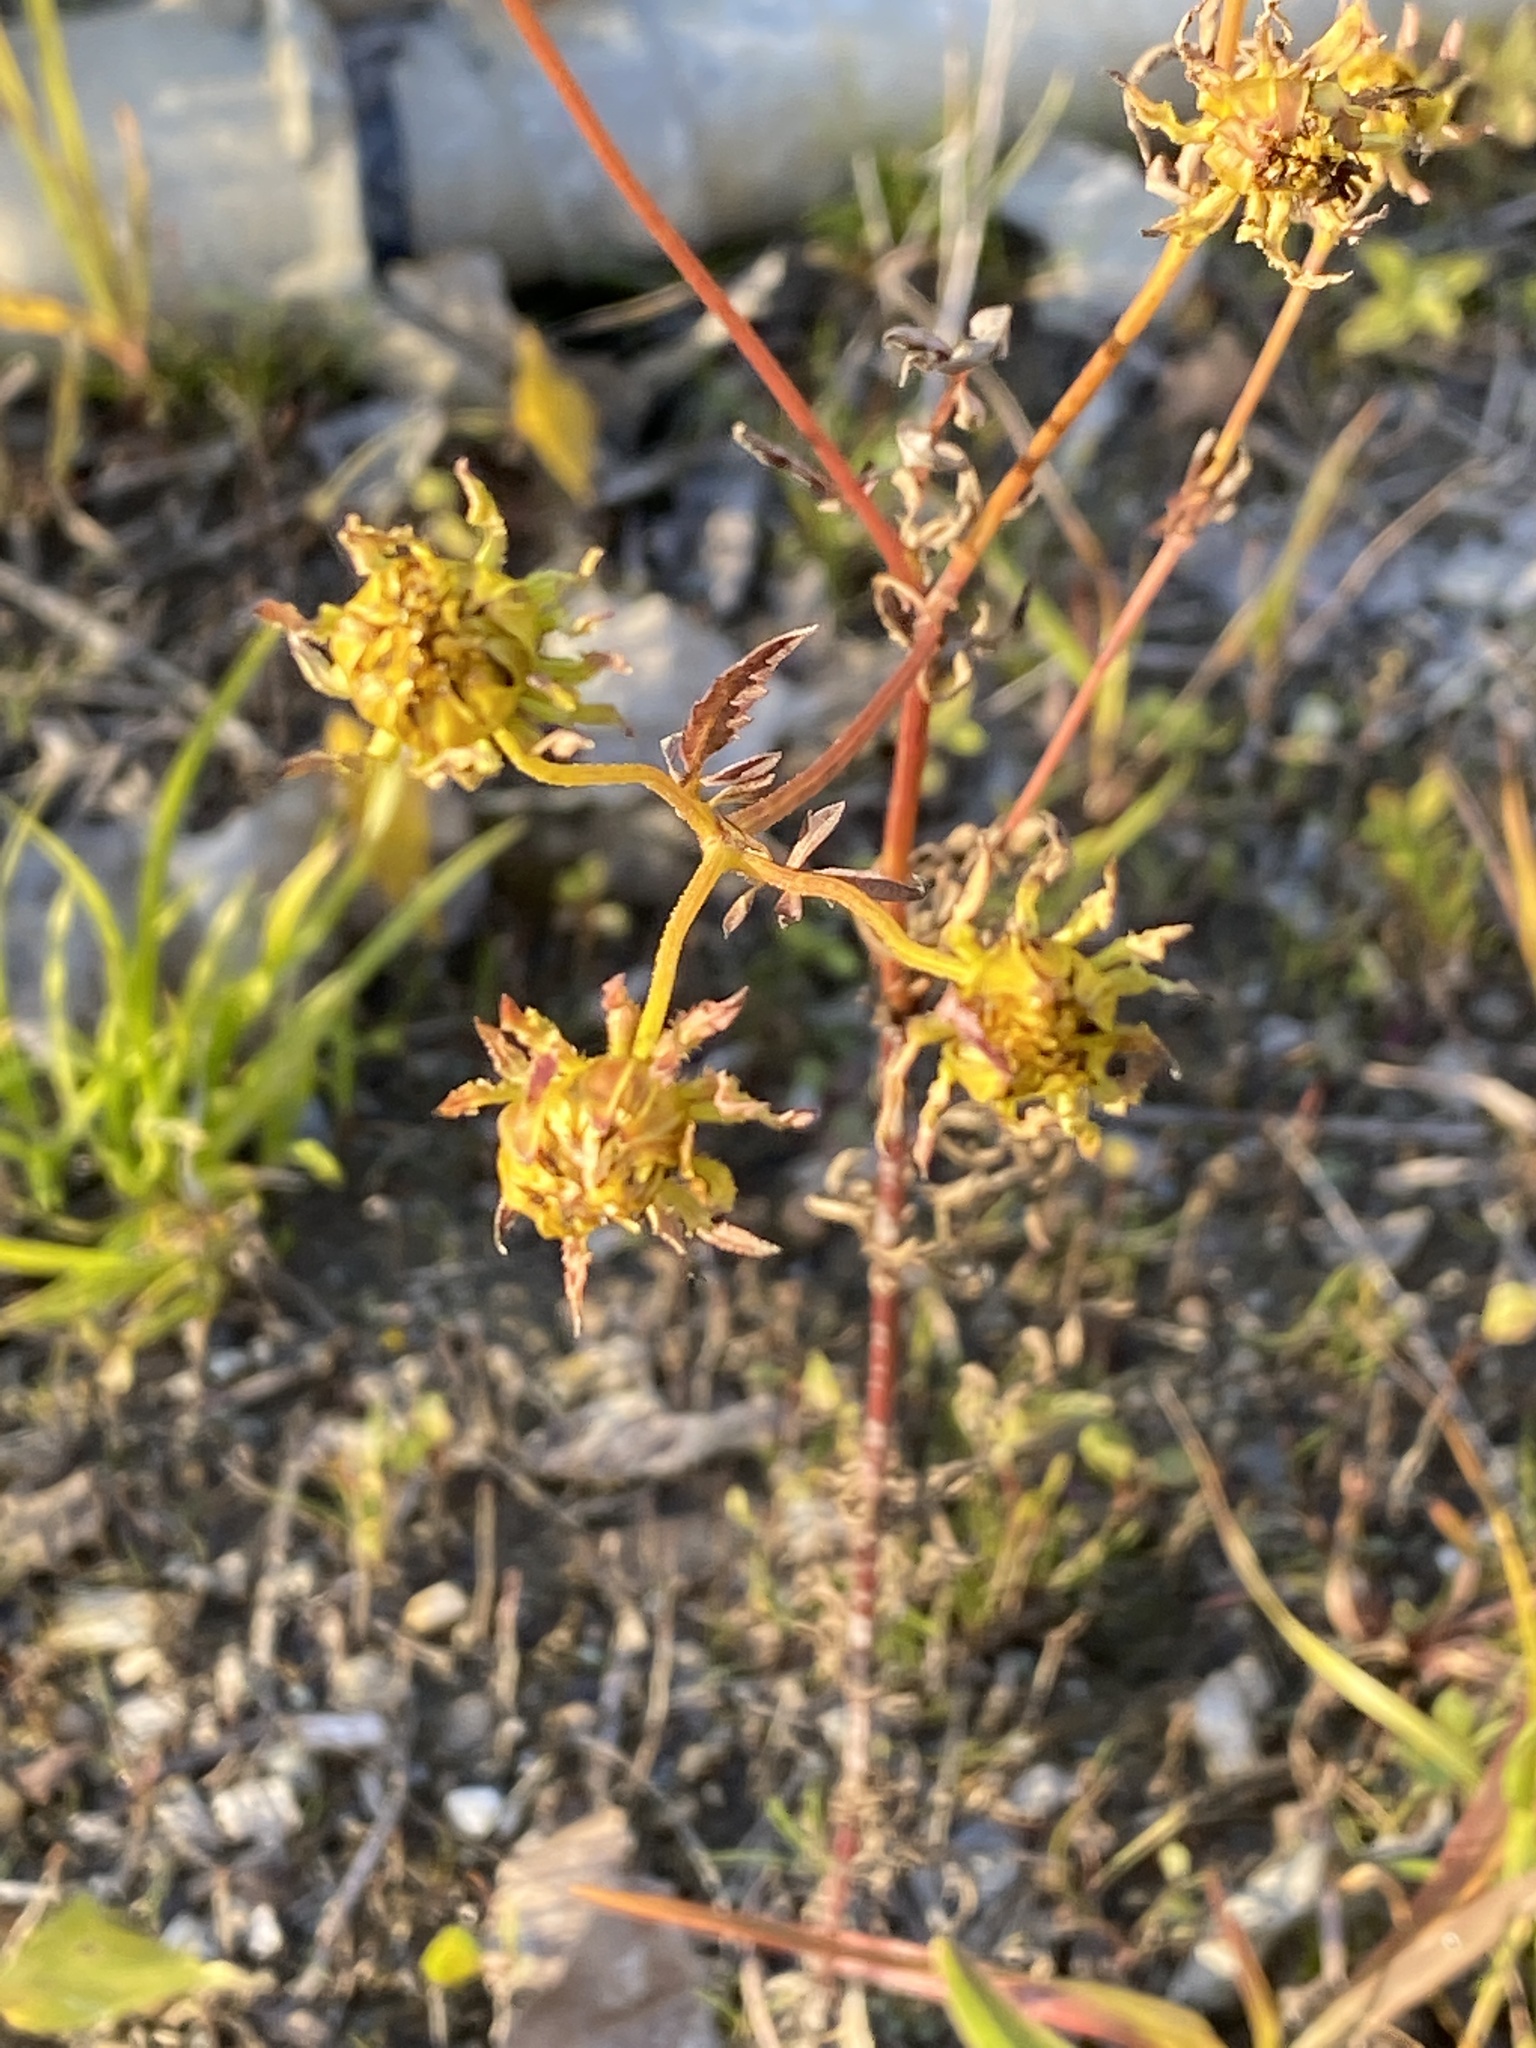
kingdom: Plantae
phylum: Tracheophyta
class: Magnoliopsida
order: Asterales
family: Asteraceae
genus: Bidens
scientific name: Bidens polylepis
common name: Awnless beggarticks
